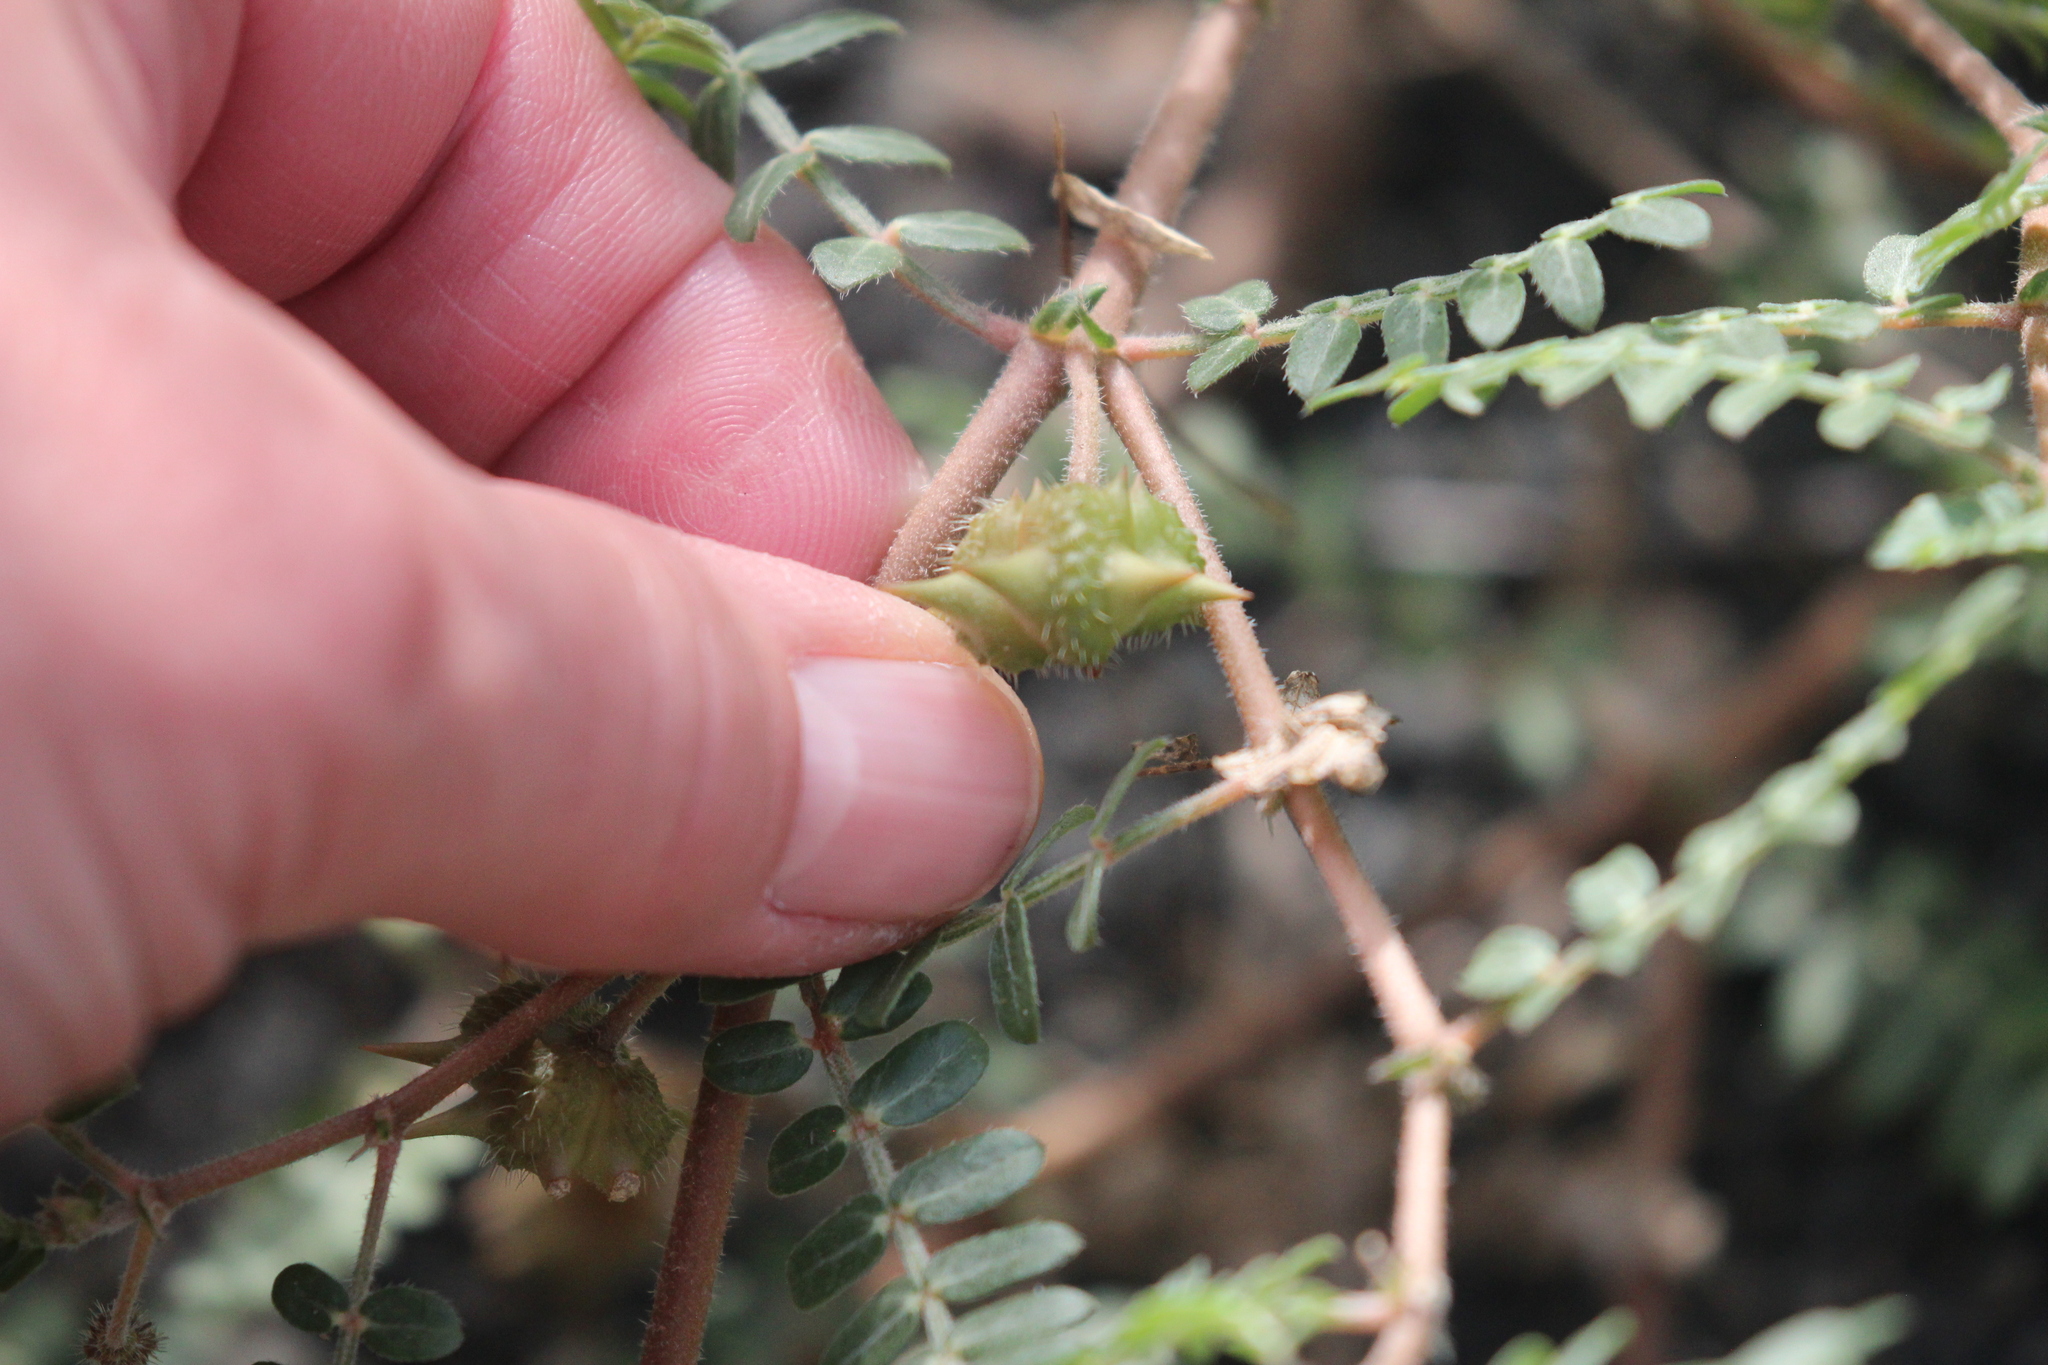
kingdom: Plantae
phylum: Tracheophyta
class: Magnoliopsida
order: Zygophyllales
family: Zygophyllaceae
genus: Tribulus
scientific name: Tribulus terrestris
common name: Puncturevine
